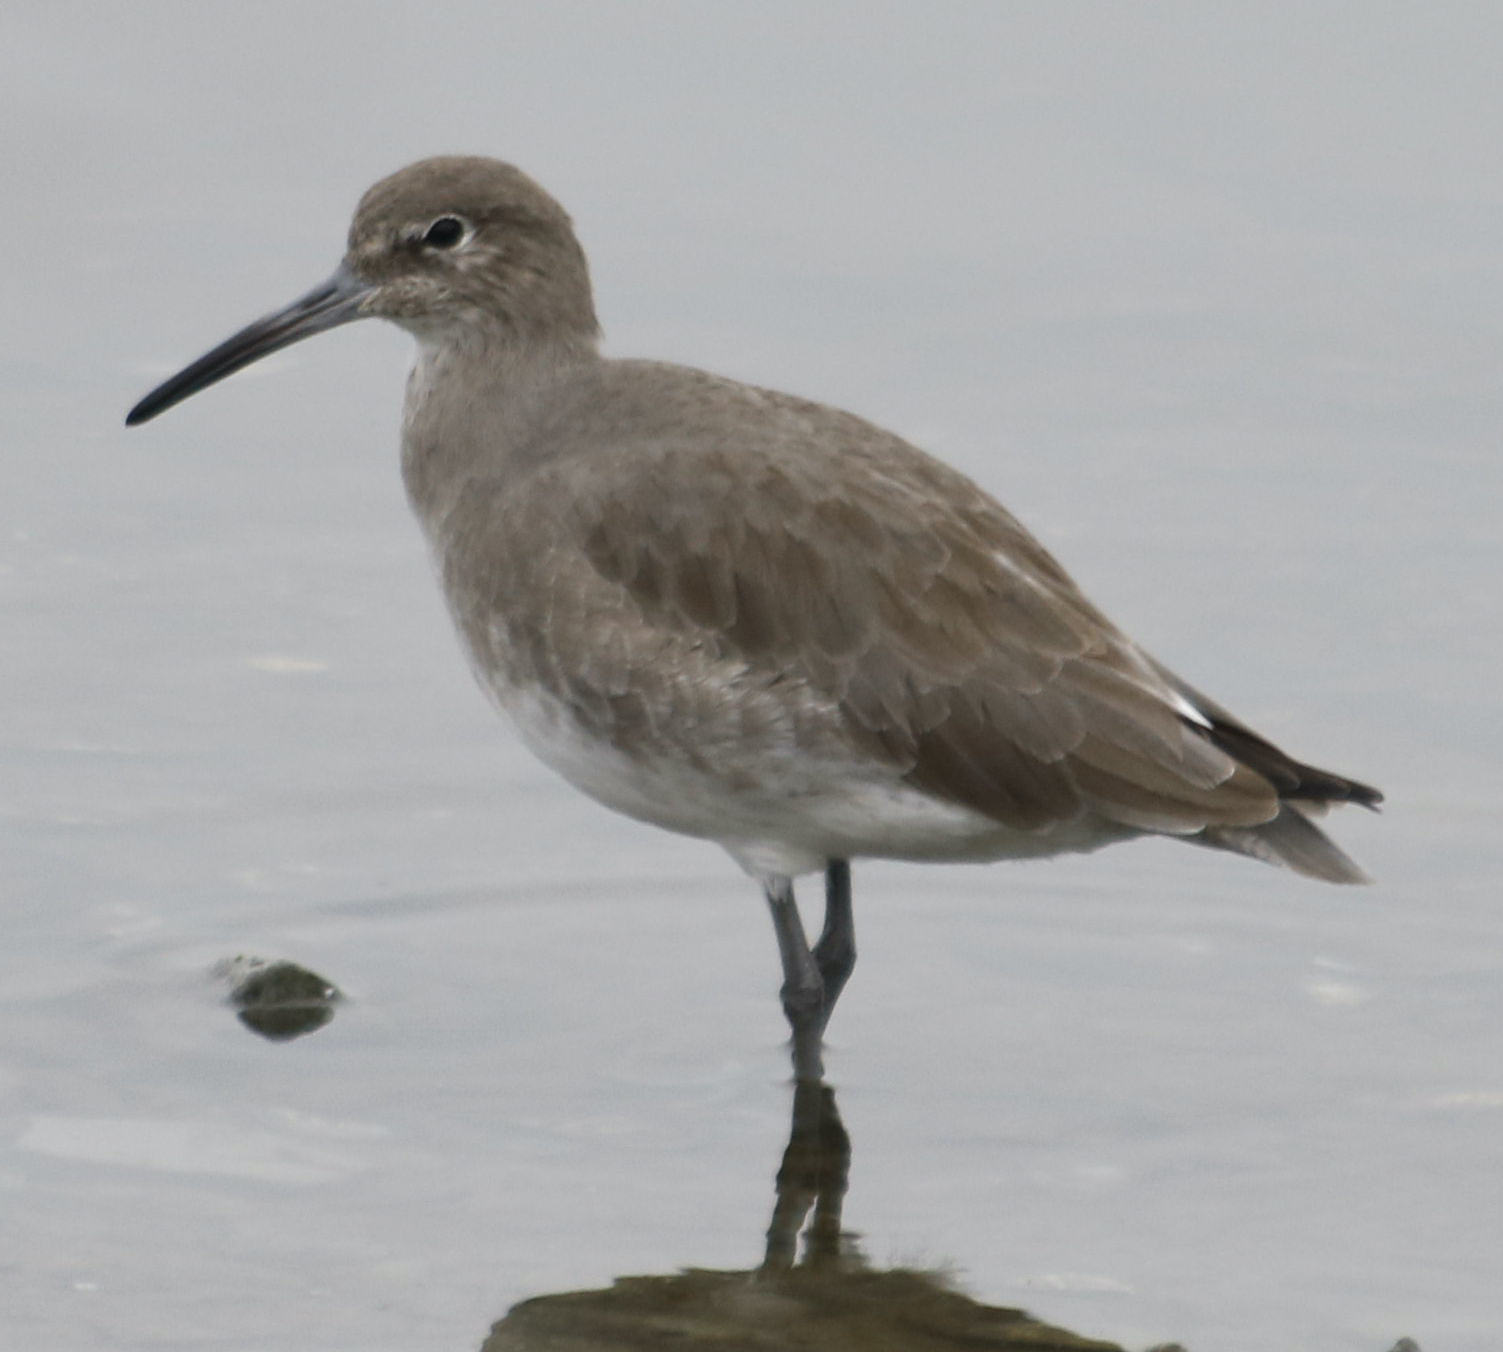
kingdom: Animalia
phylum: Chordata
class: Aves
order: Charadriiformes
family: Scolopacidae
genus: Tringa
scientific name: Tringa semipalmata
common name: Willet
